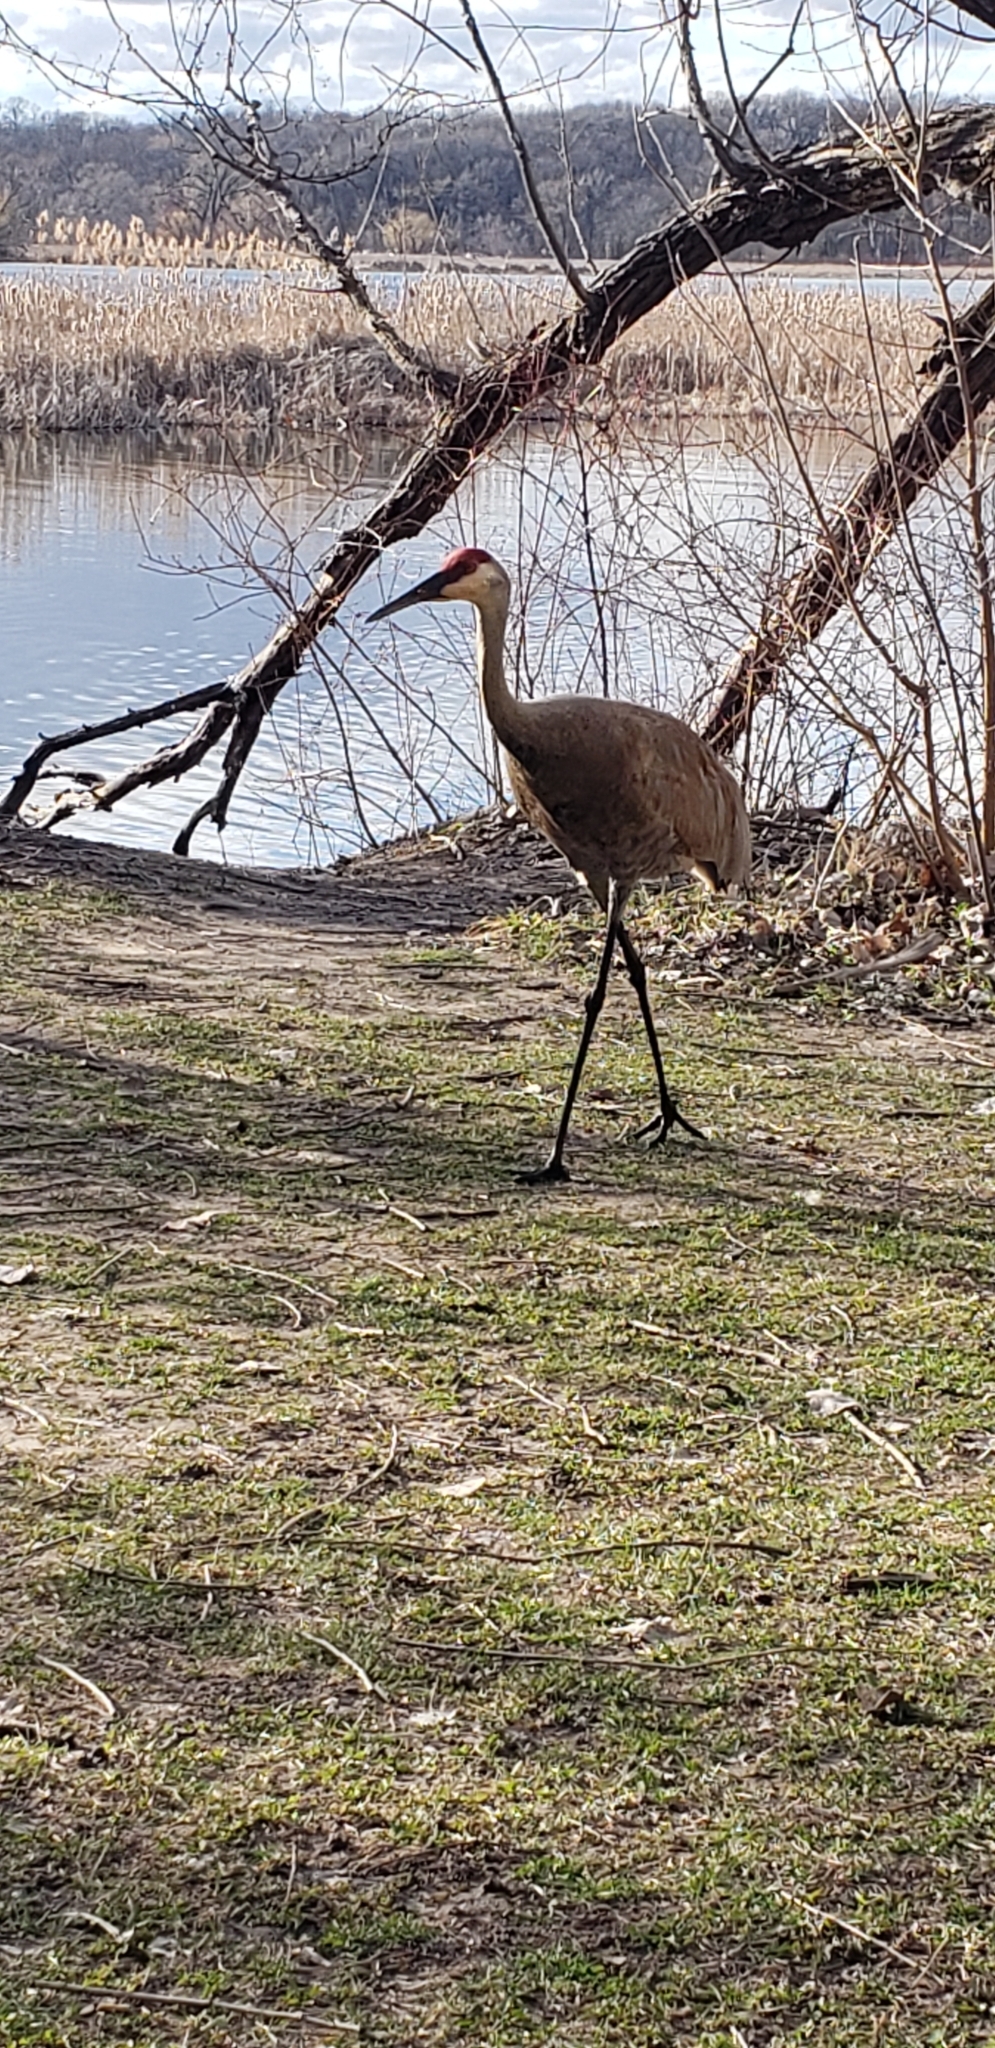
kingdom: Animalia
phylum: Chordata
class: Aves
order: Gruiformes
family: Gruidae
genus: Grus
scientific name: Grus canadensis
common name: Sandhill crane
